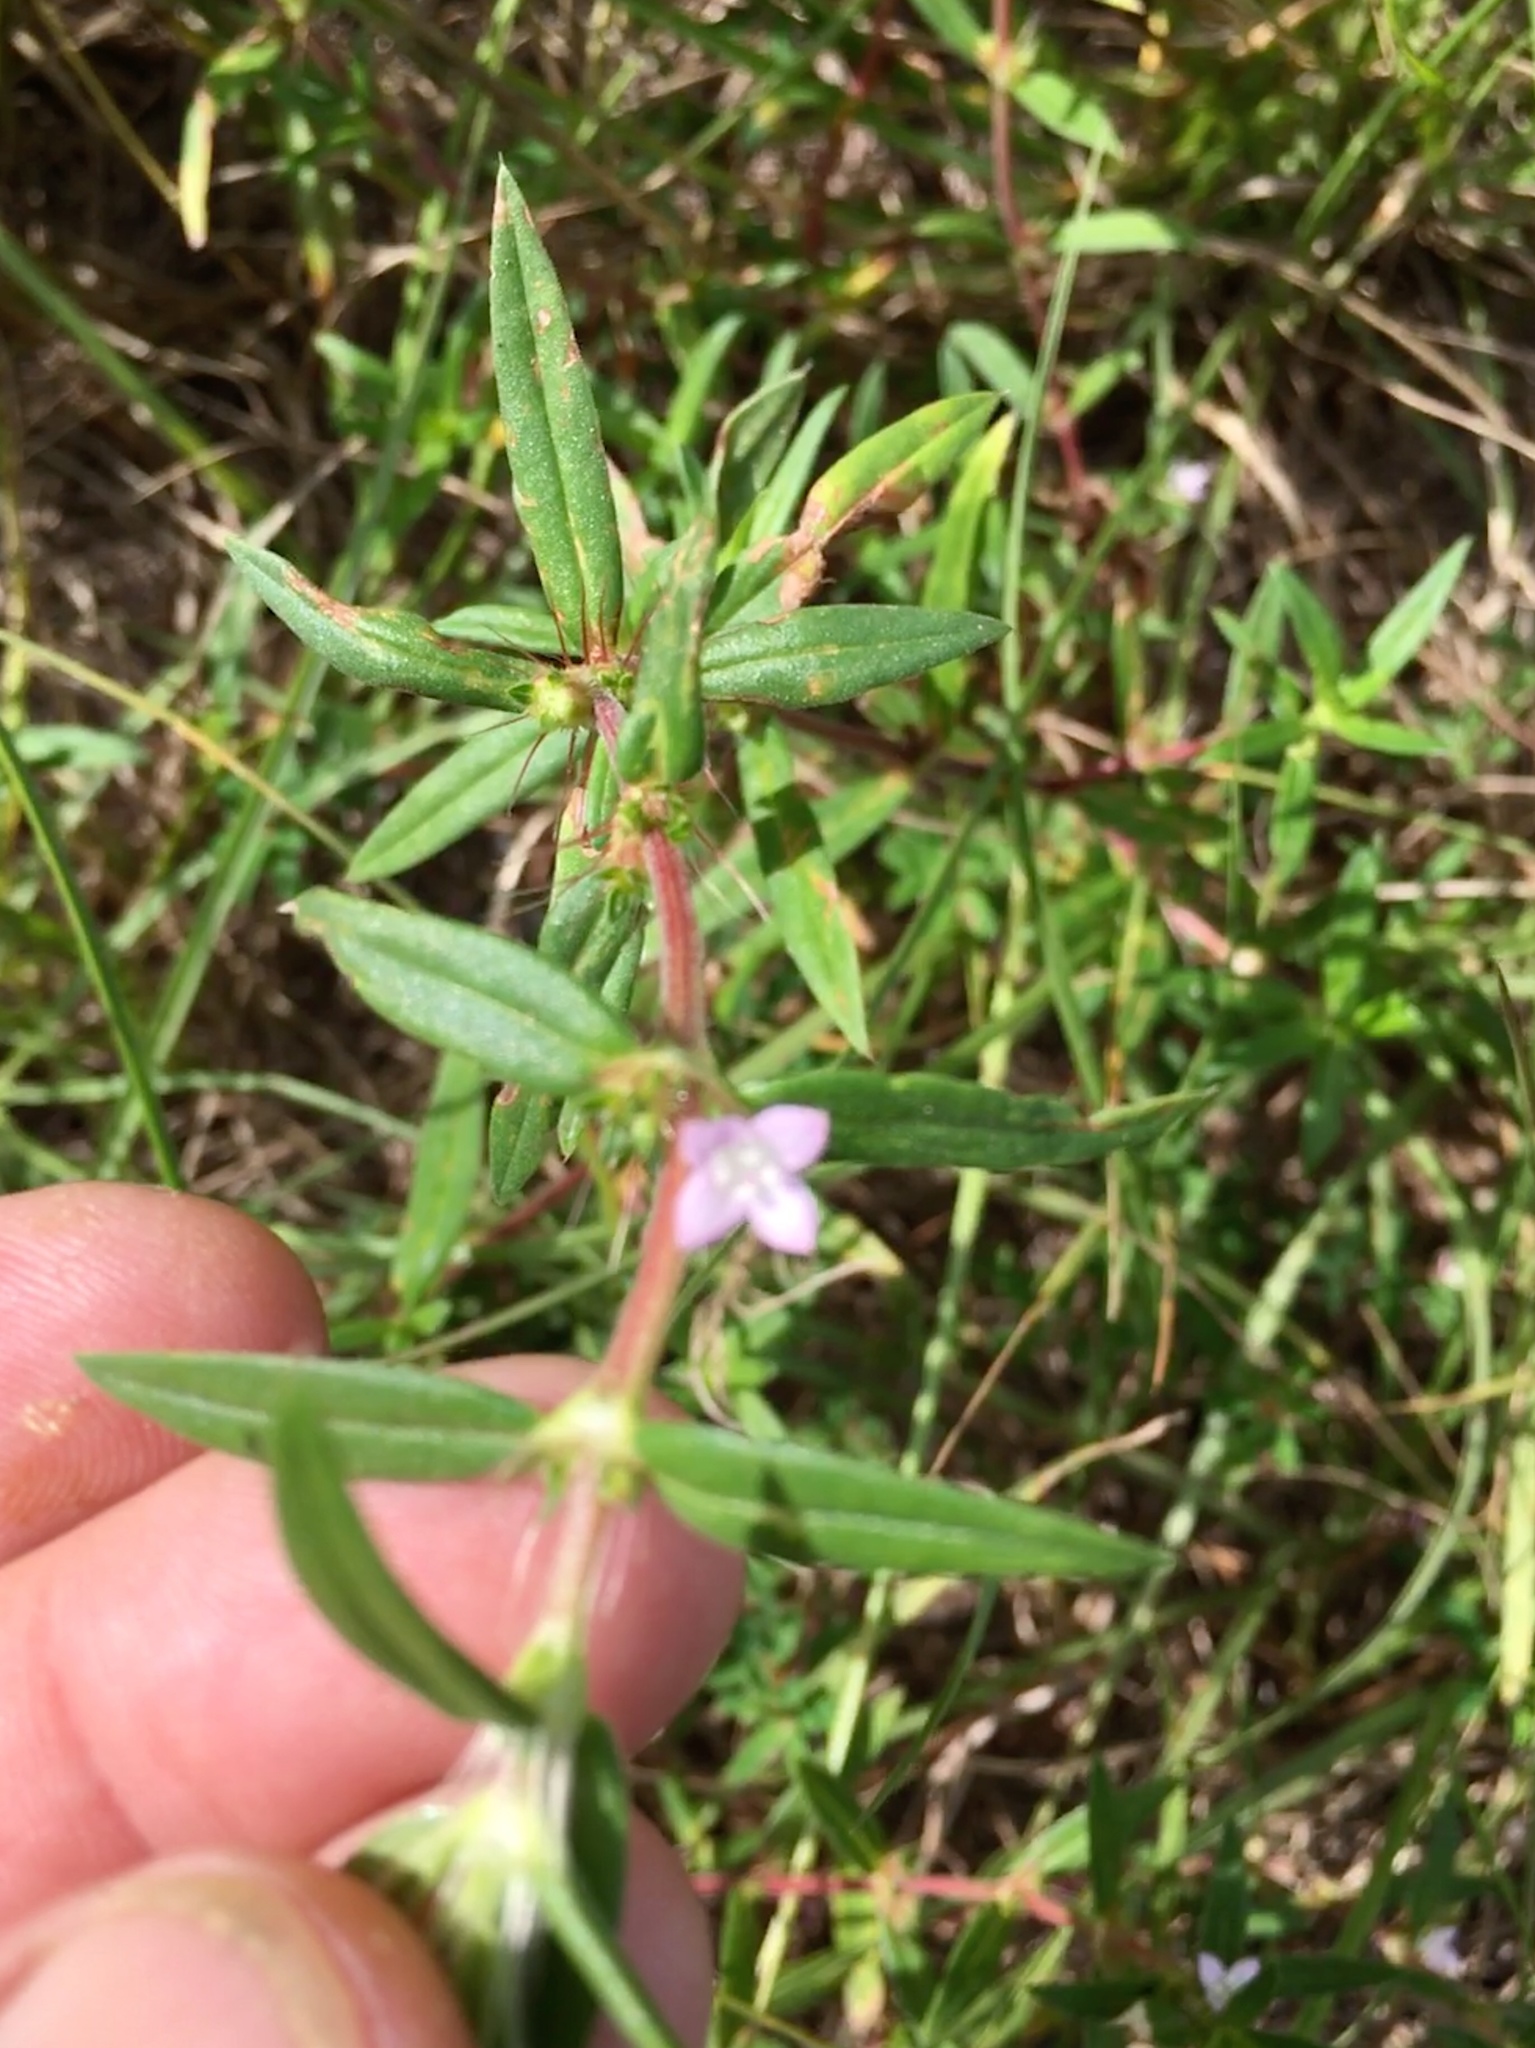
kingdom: Plantae
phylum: Tracheophyta
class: Magnoliopsida
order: Gentianales
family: Rubiaceae
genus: Hexasepalum
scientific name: Hexasepalum teres
